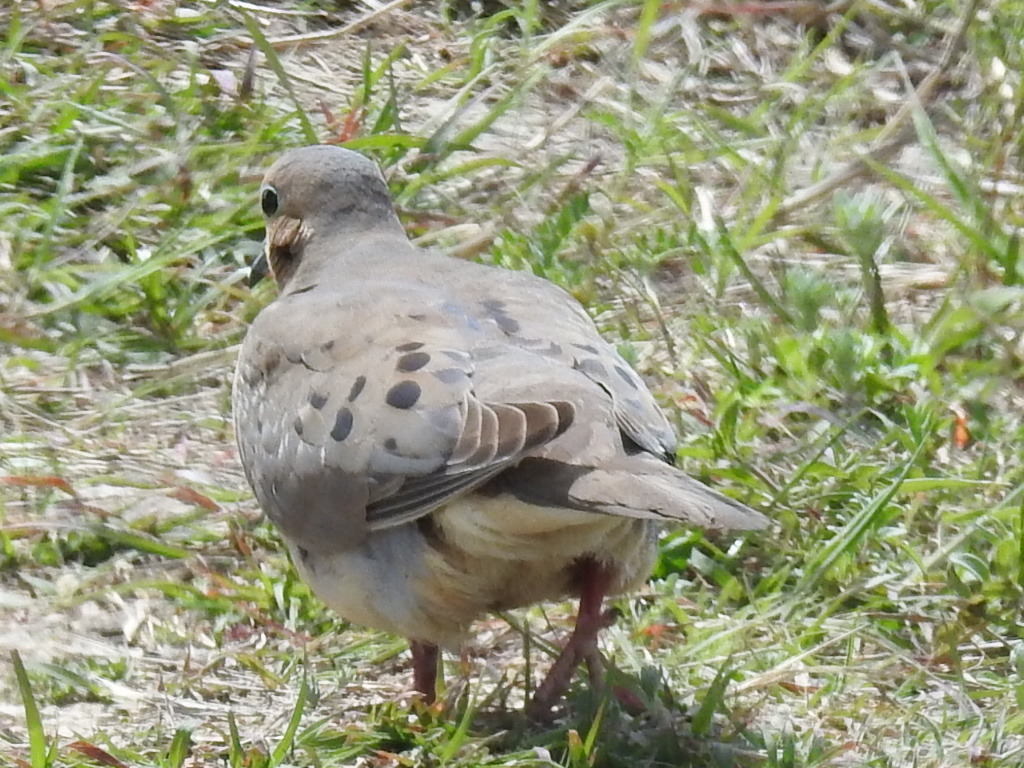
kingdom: Animalia
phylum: Chordata
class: Aves
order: Columbiformes
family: Columbidae
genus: Zenaida
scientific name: Zenaida macroura
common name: Mourning dove
